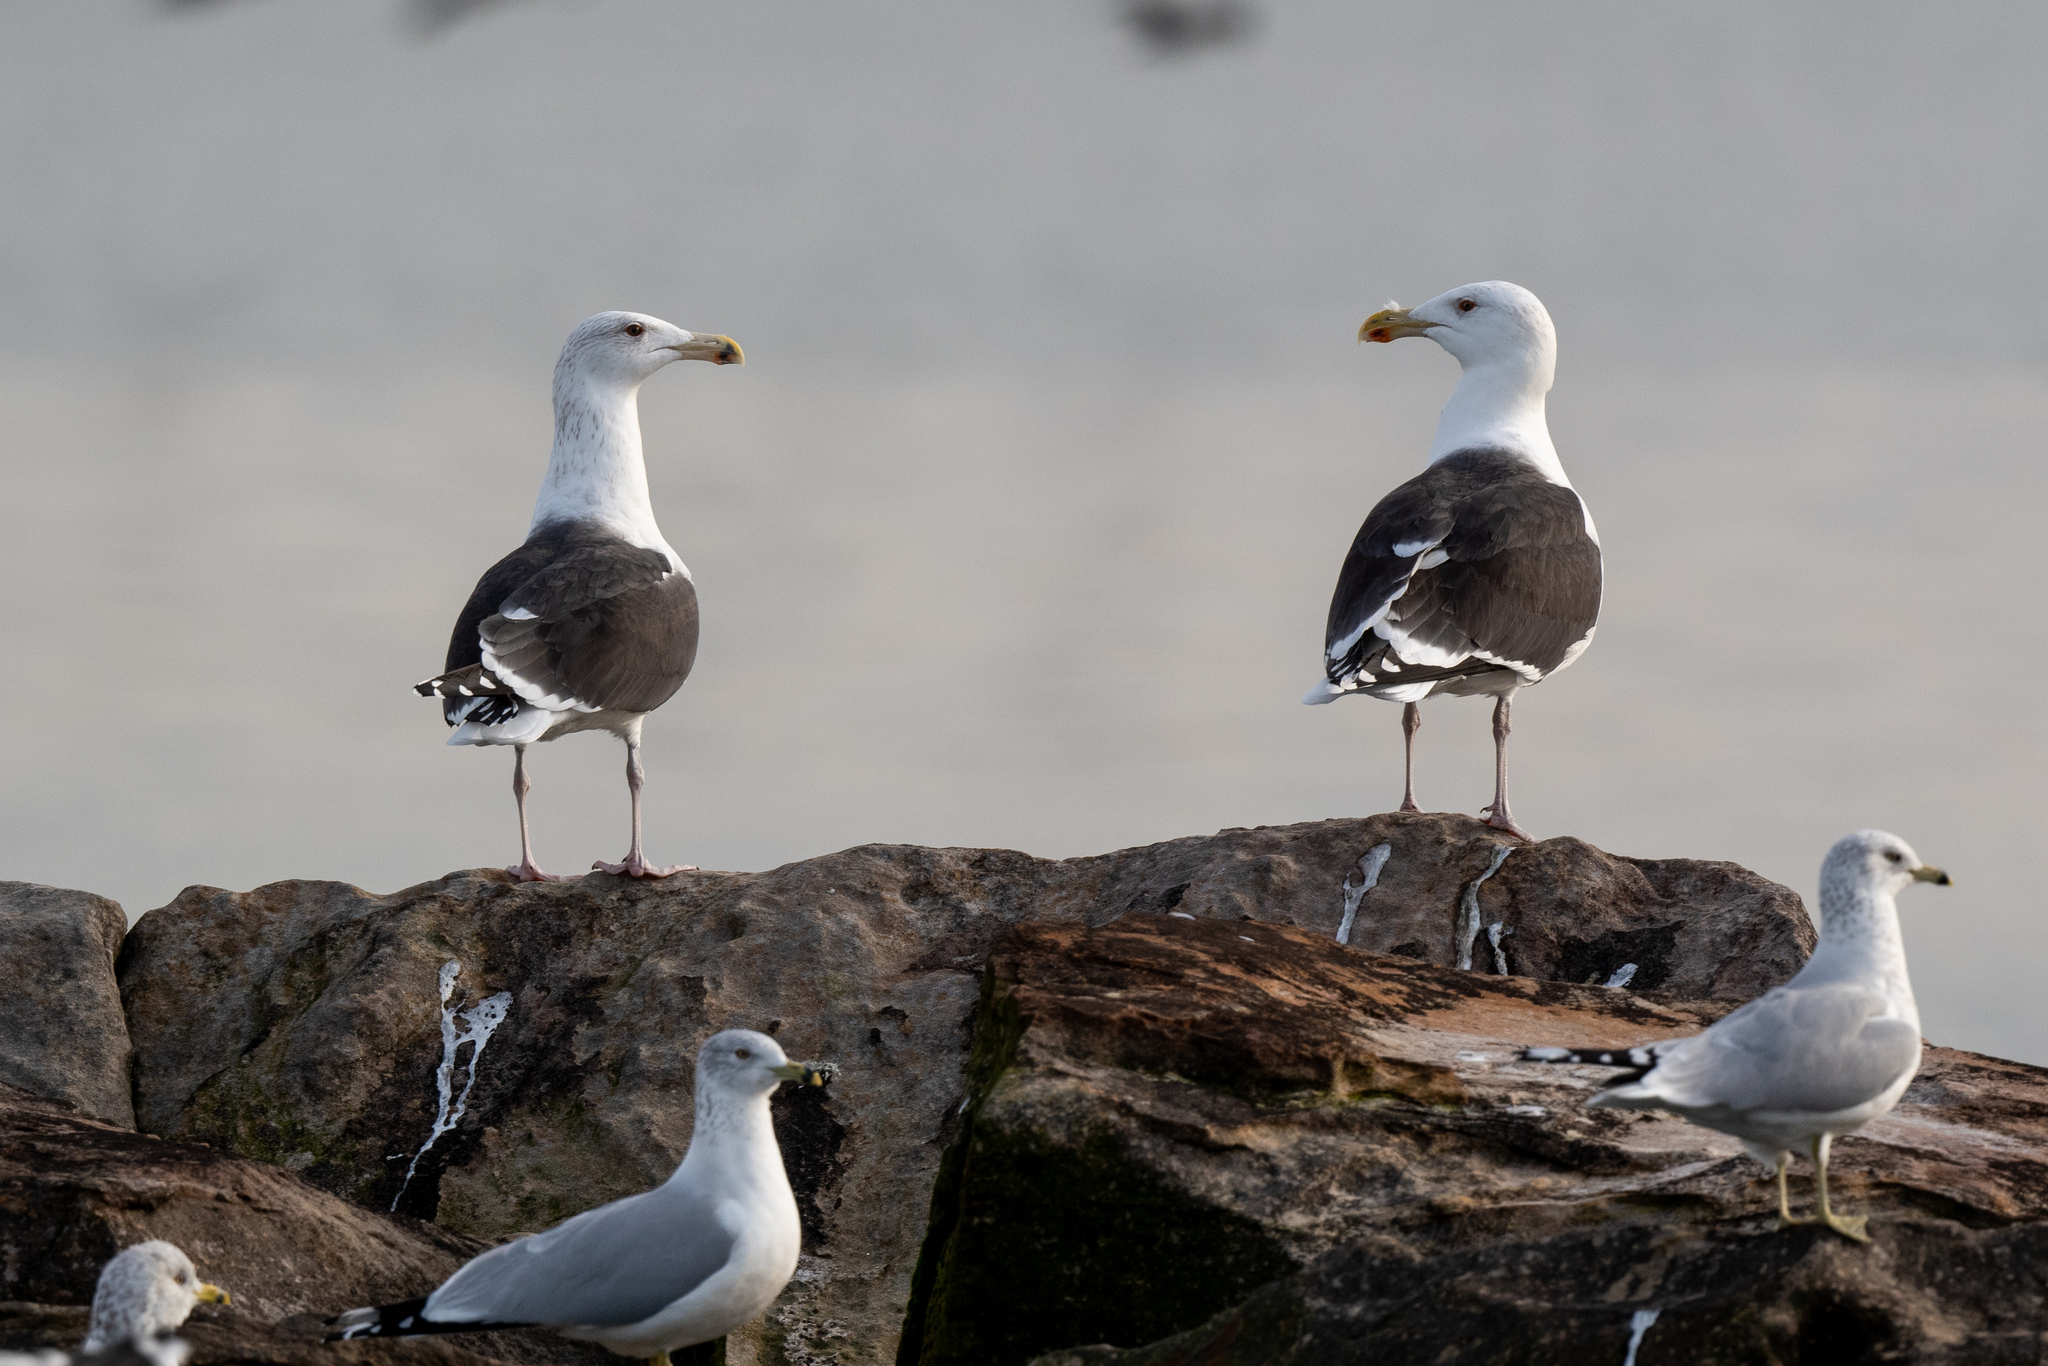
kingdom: Animalia
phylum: Chordata
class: Aves
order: Charadriiformes
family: Laridae
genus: Larus
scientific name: Larus marinus
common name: Great black-backed gull
